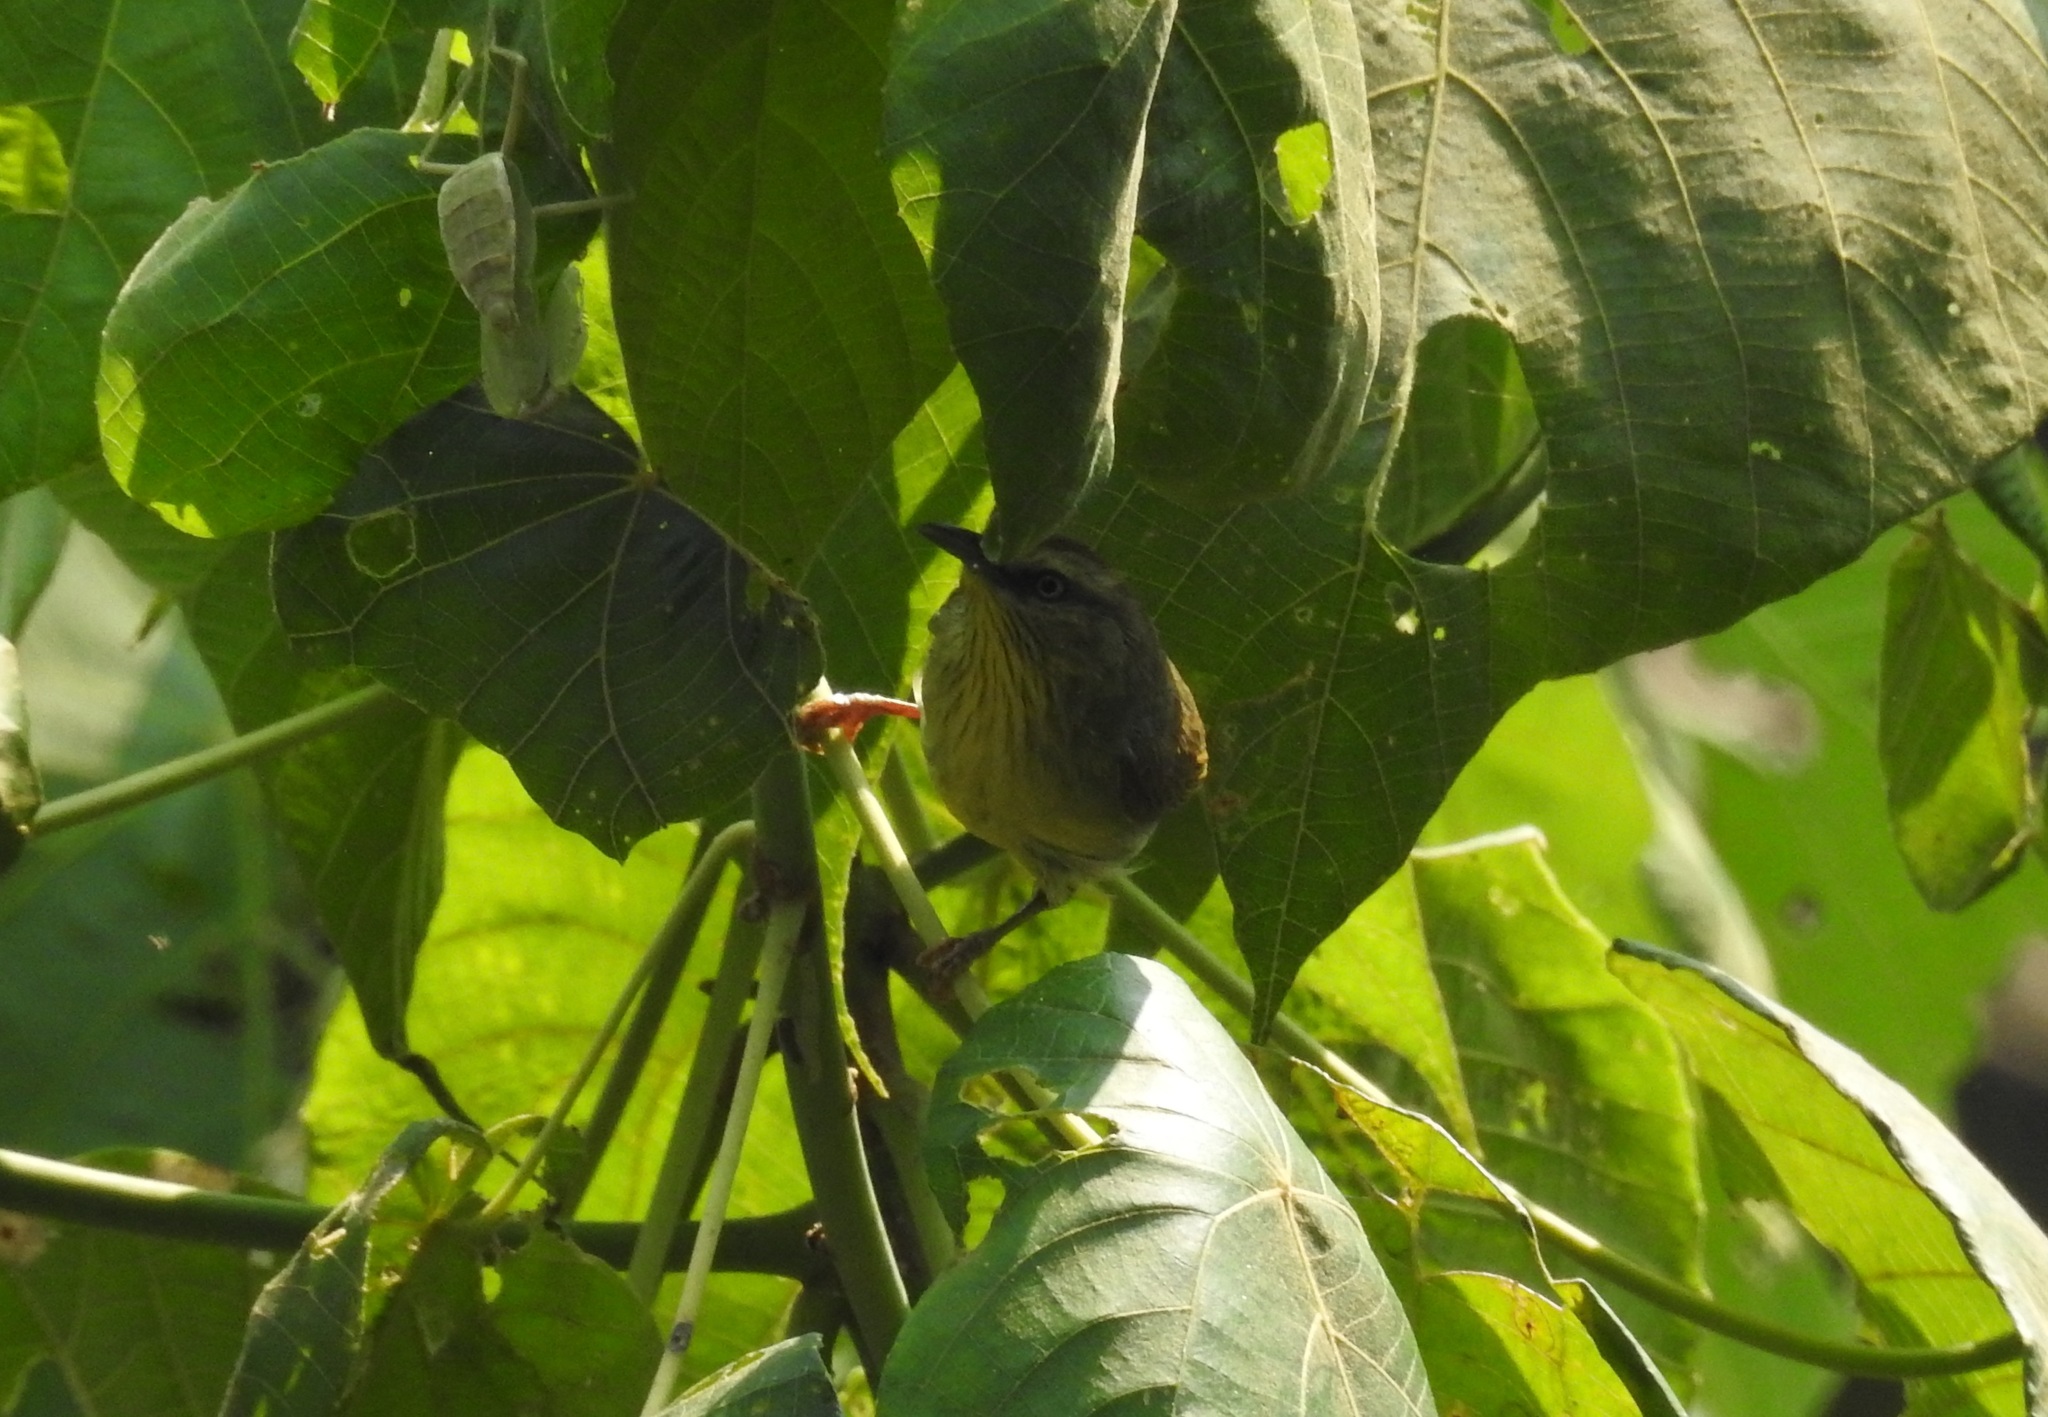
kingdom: Animalia
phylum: Chordata
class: Aves
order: Passeriformes
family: Timaliidae
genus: Macronus
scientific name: Macronus gularis
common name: Striped tit-babbler
